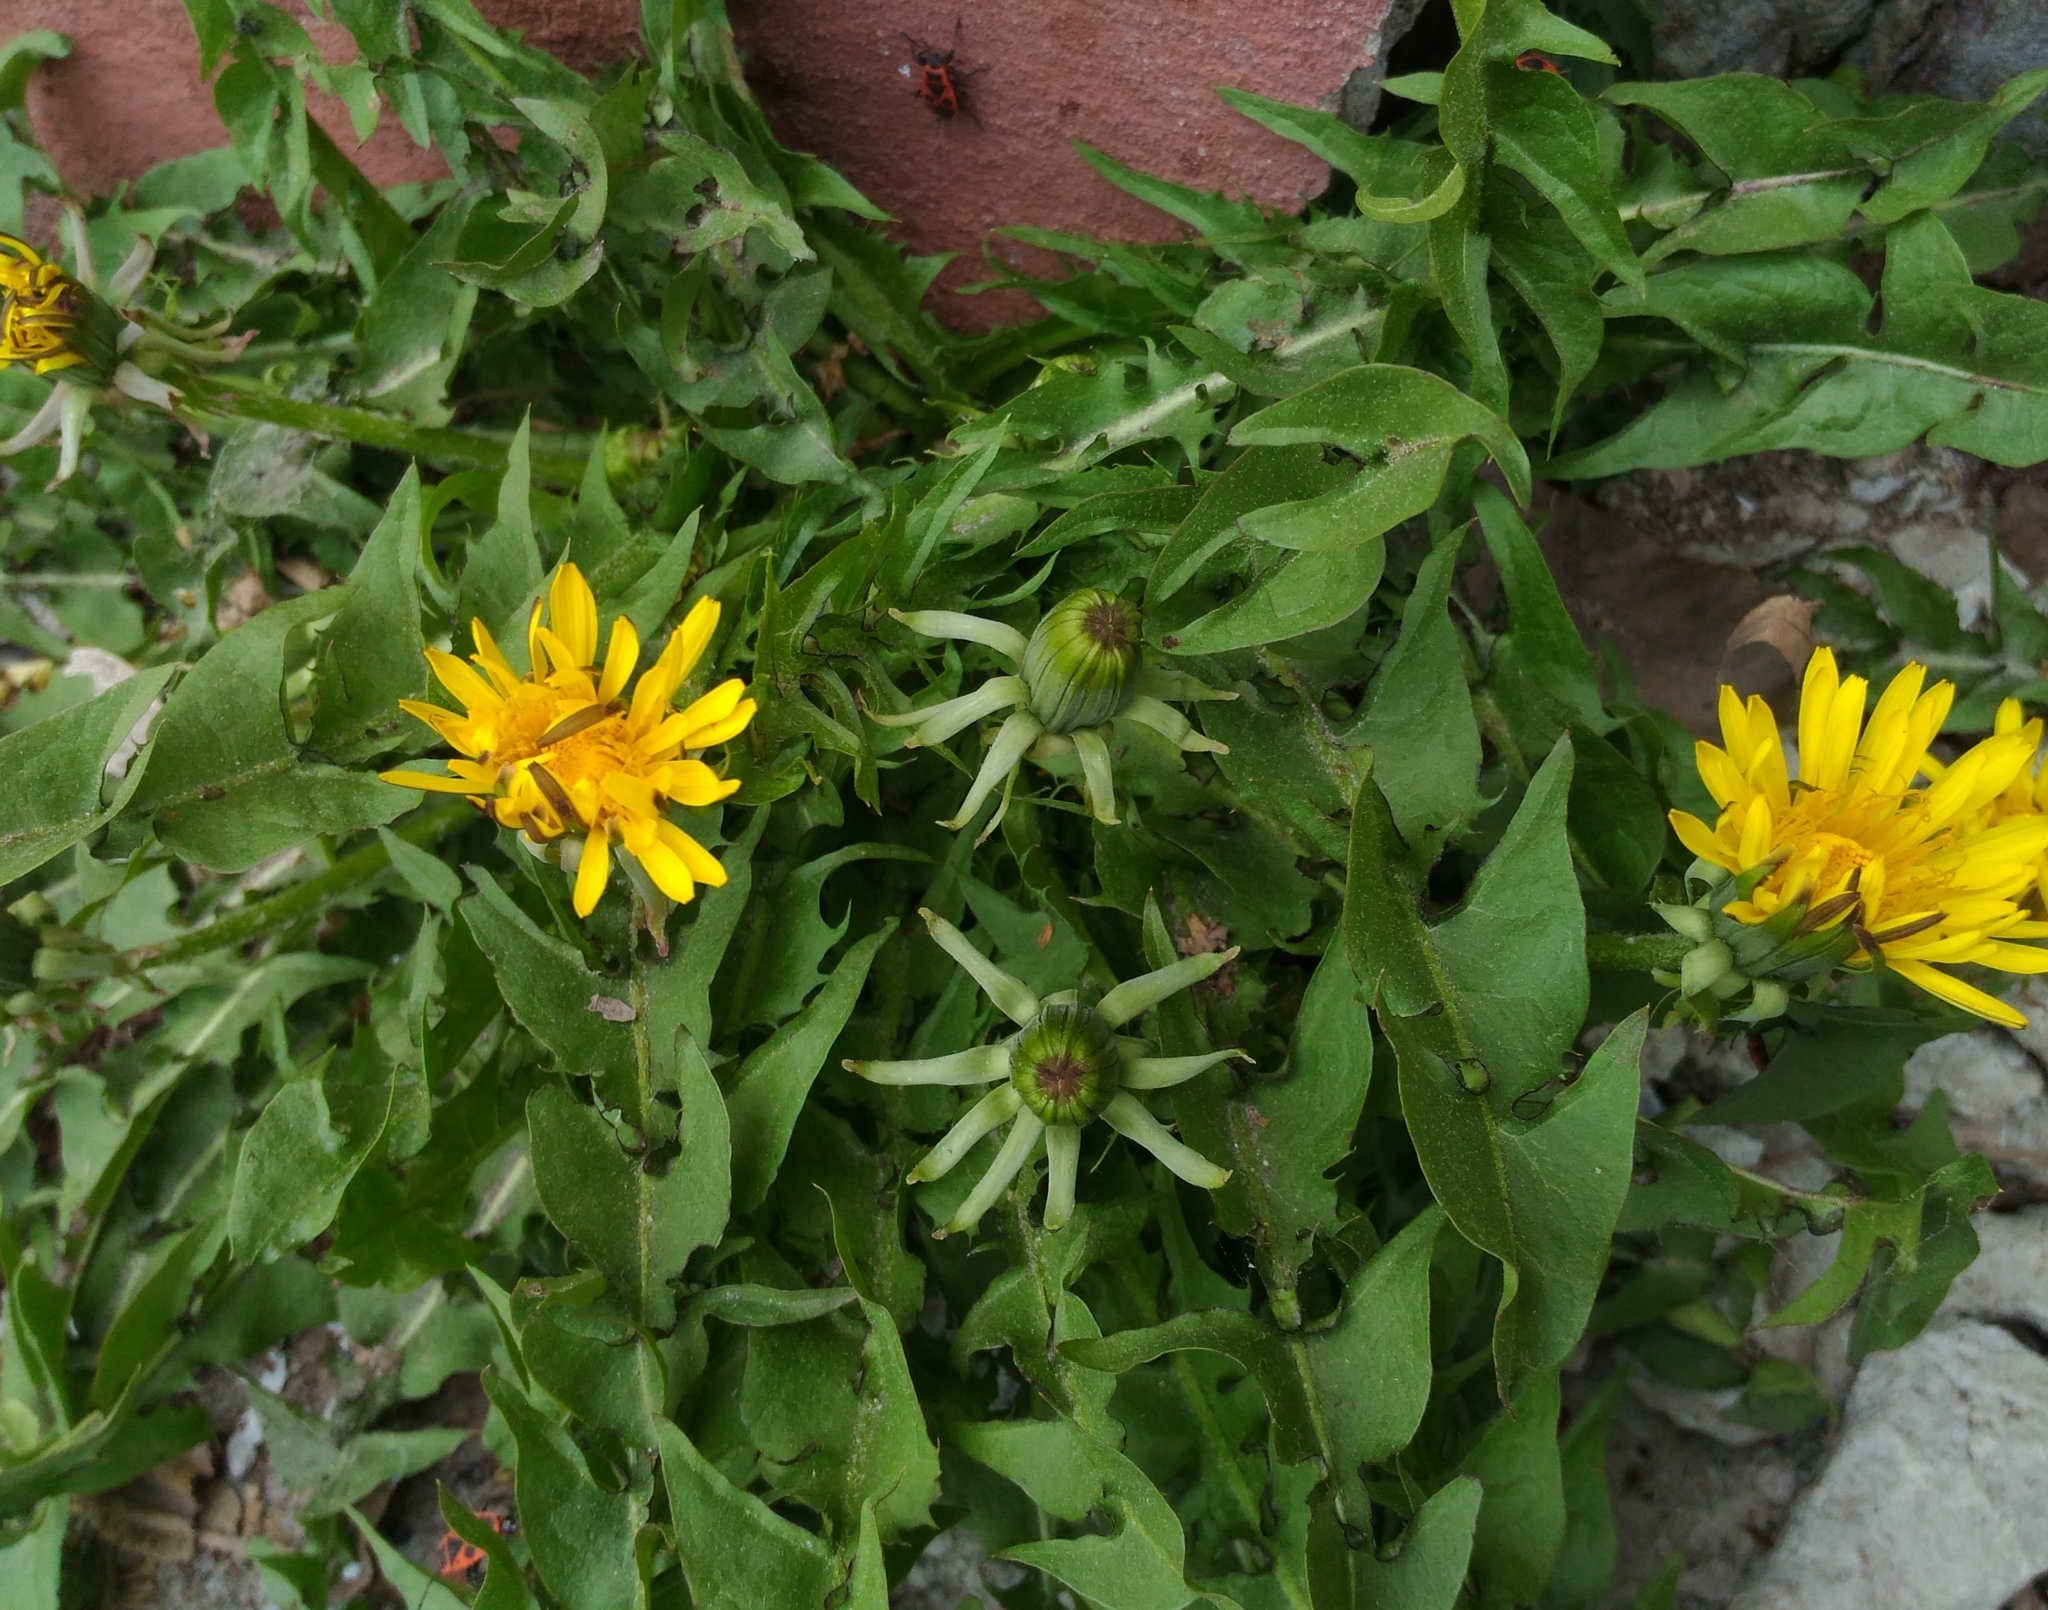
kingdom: Plantae
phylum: Tracheophyta
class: Magnoliopsida
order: Asterales
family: Asteraceae
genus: Taraxacum
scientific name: Taraxacum officinale
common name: Common dandelion
